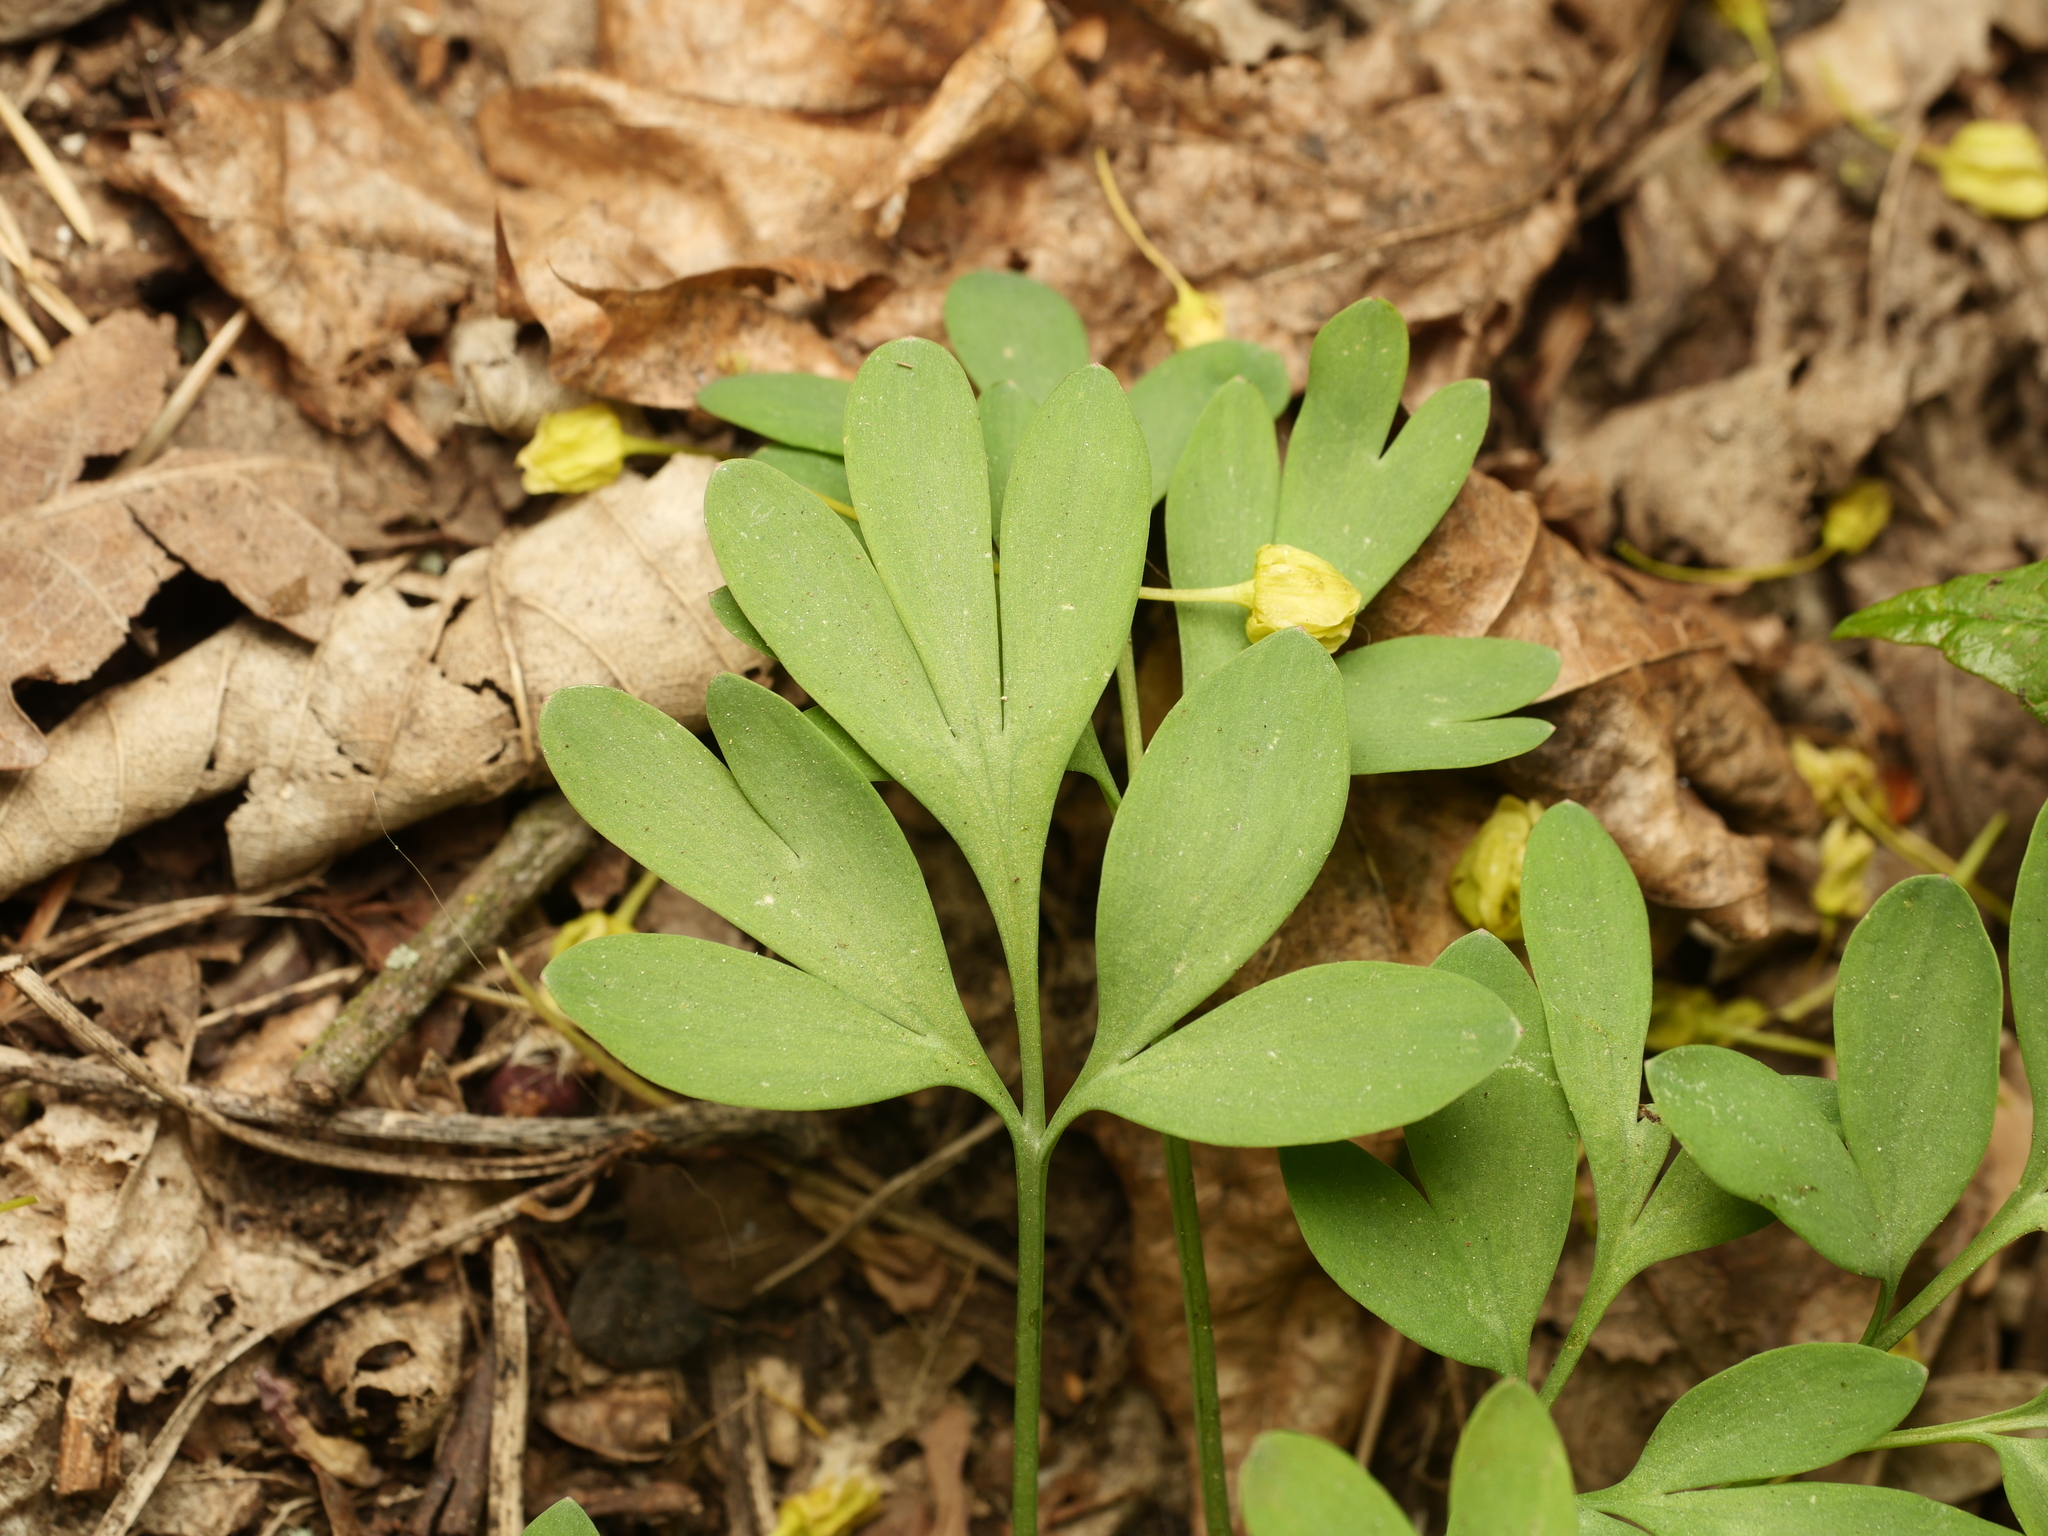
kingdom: Plantae
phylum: Tracheophyta
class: Magnoliopsida
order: Ranunculales
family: Papaveraceae
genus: Corydalis
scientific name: Corydalis solida
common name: Bird-in-a-bush
